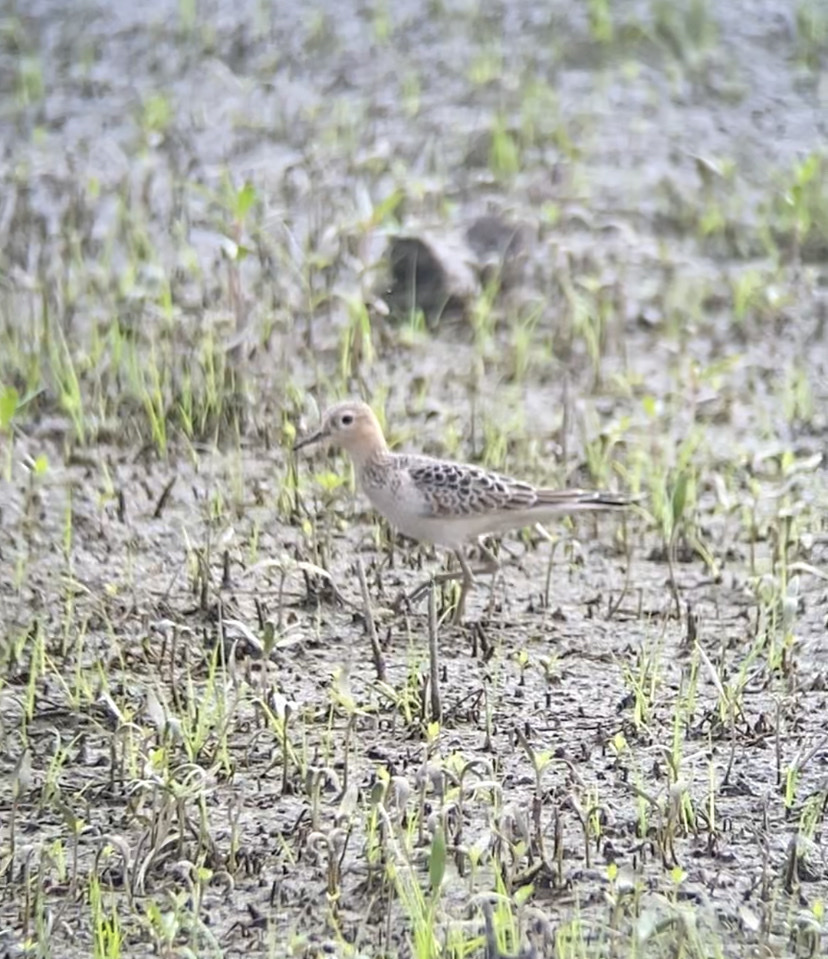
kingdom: Animalia
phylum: Chordata
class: Aves
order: Charadriiformes
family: Scolopacidae
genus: Calidris
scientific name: Calidris subruficollis
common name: Buff-breasted sandpiper
